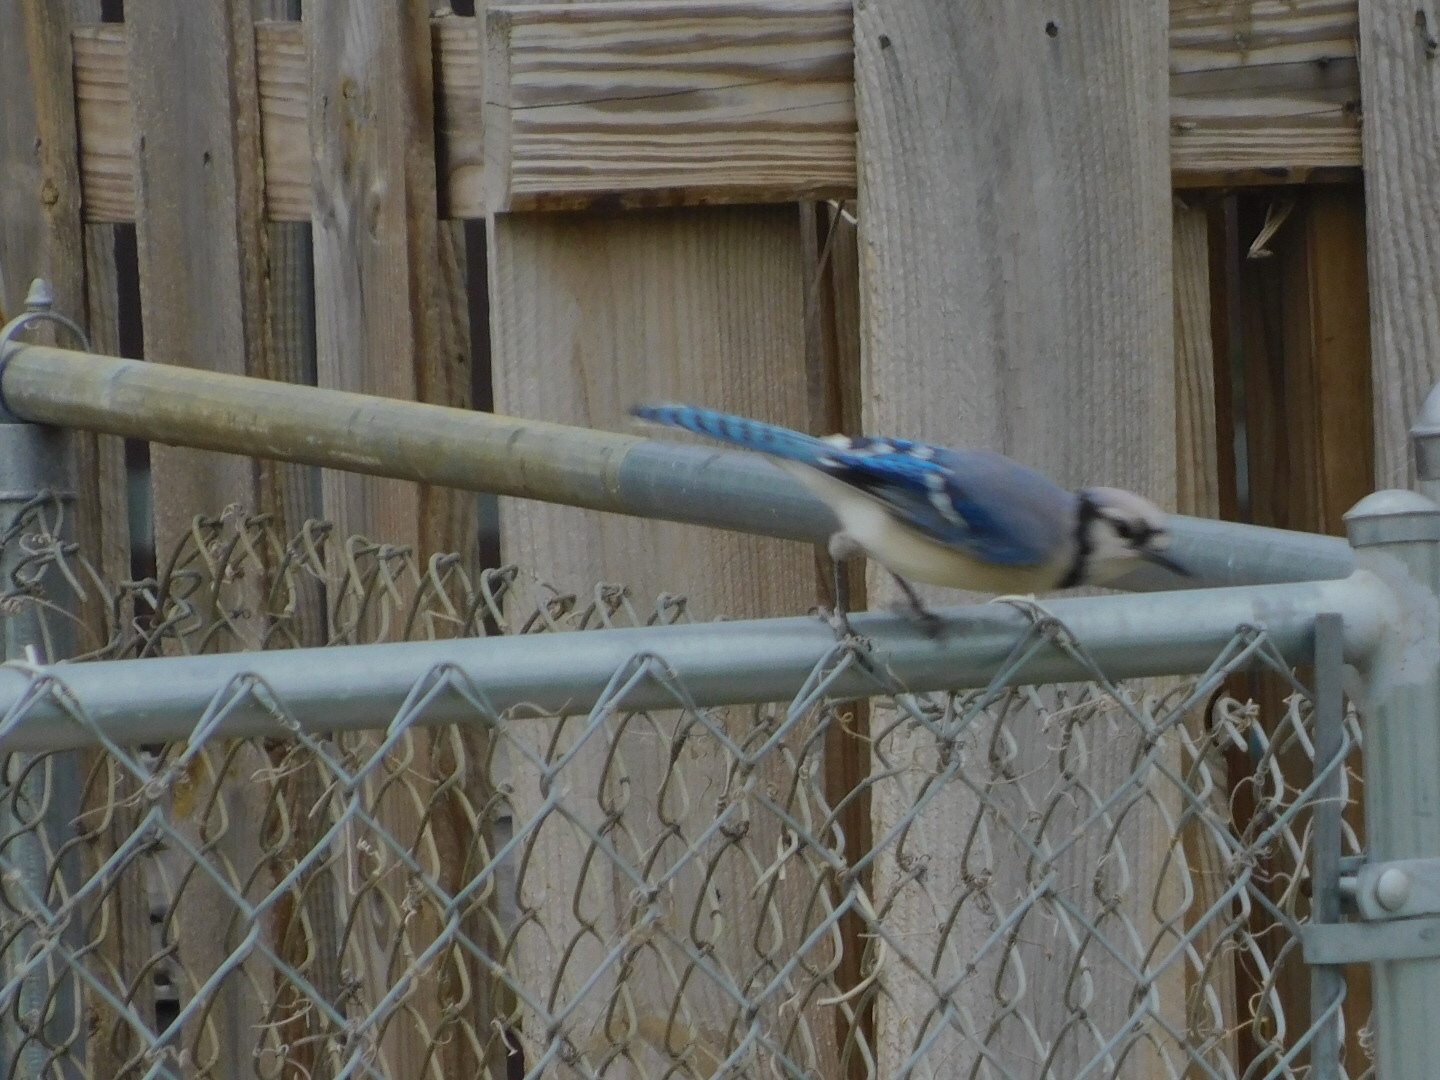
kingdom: Animalia
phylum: Chordata
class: Aves
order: Passeriformes
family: Corvidae
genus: Cyanocitta
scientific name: Cyanocitta cristata
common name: Blue jay
